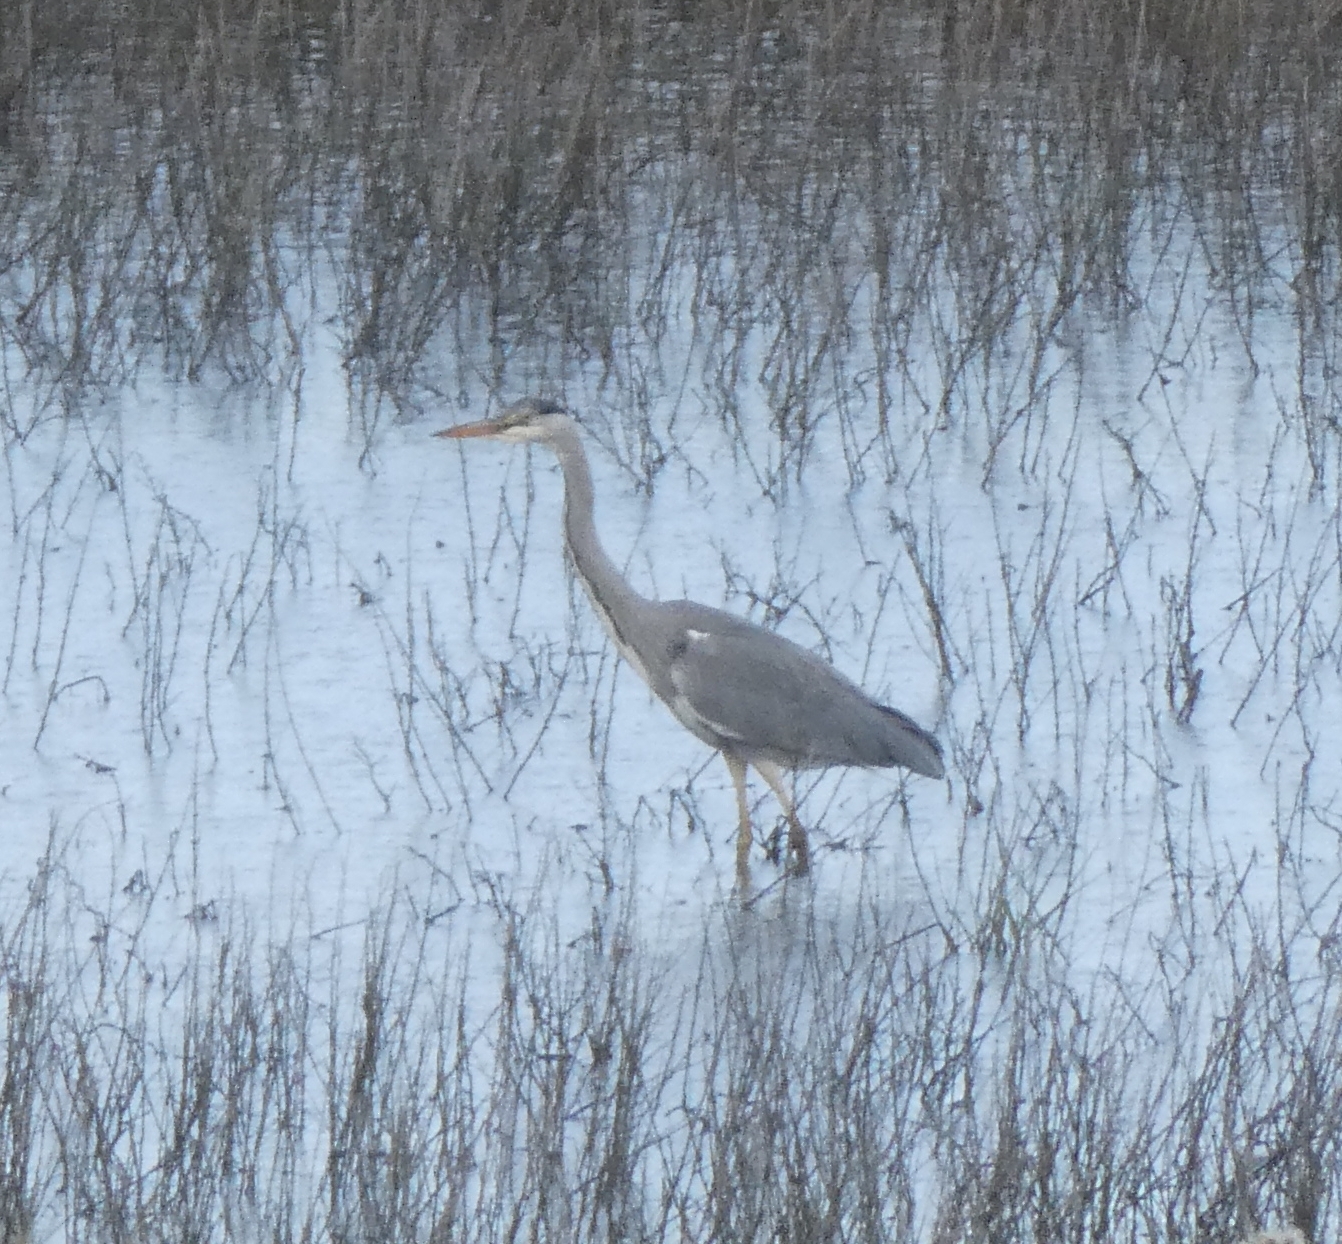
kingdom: Animalia
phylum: Chordata
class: Aves
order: Pelecaniformes
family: Ardeidae
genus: Ardea
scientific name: Ardea cinerea
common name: Grey heron
